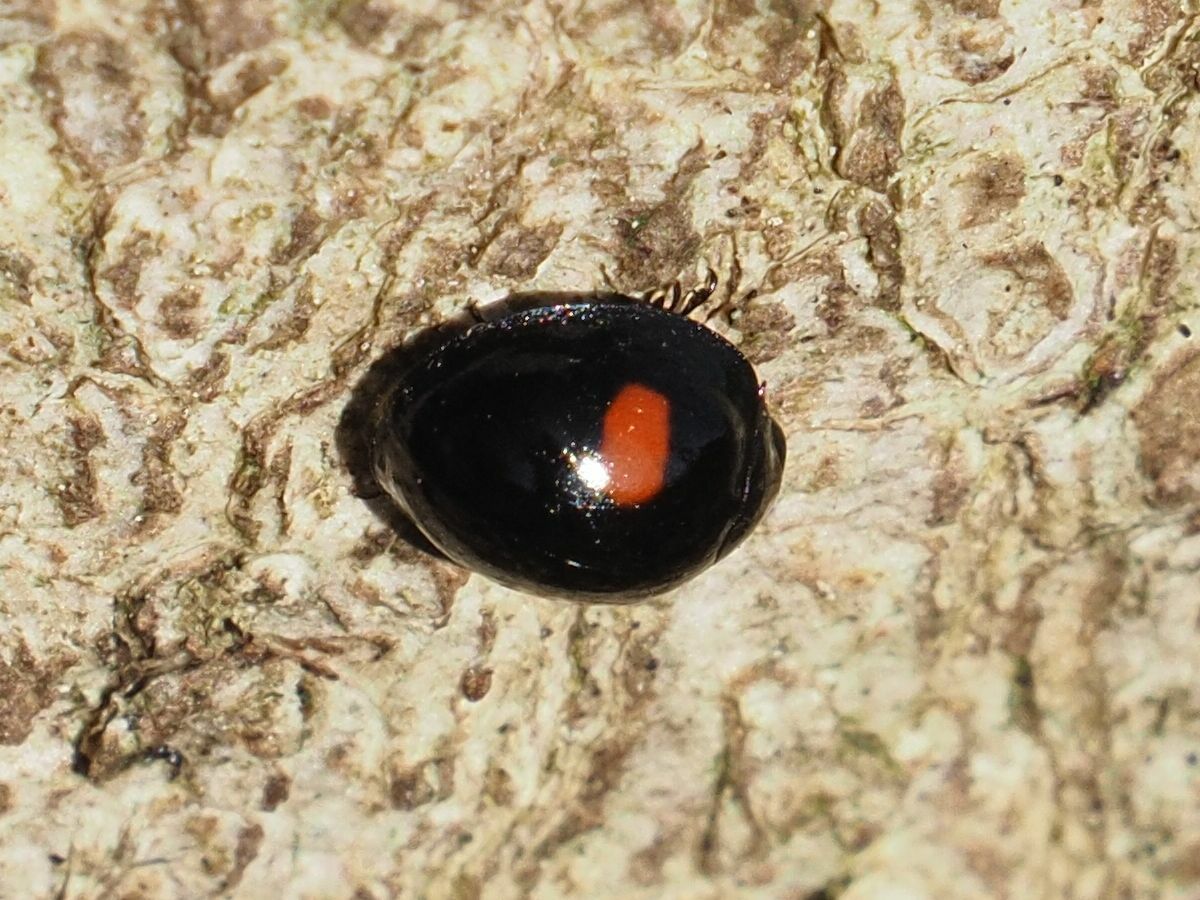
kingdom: Animalia
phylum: Arthropoda
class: Insecta
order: Coleoptera
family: Coccinellidae
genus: Chilocorus
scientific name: Chilocorus renipustulatus
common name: Kidney-spot ladybird
